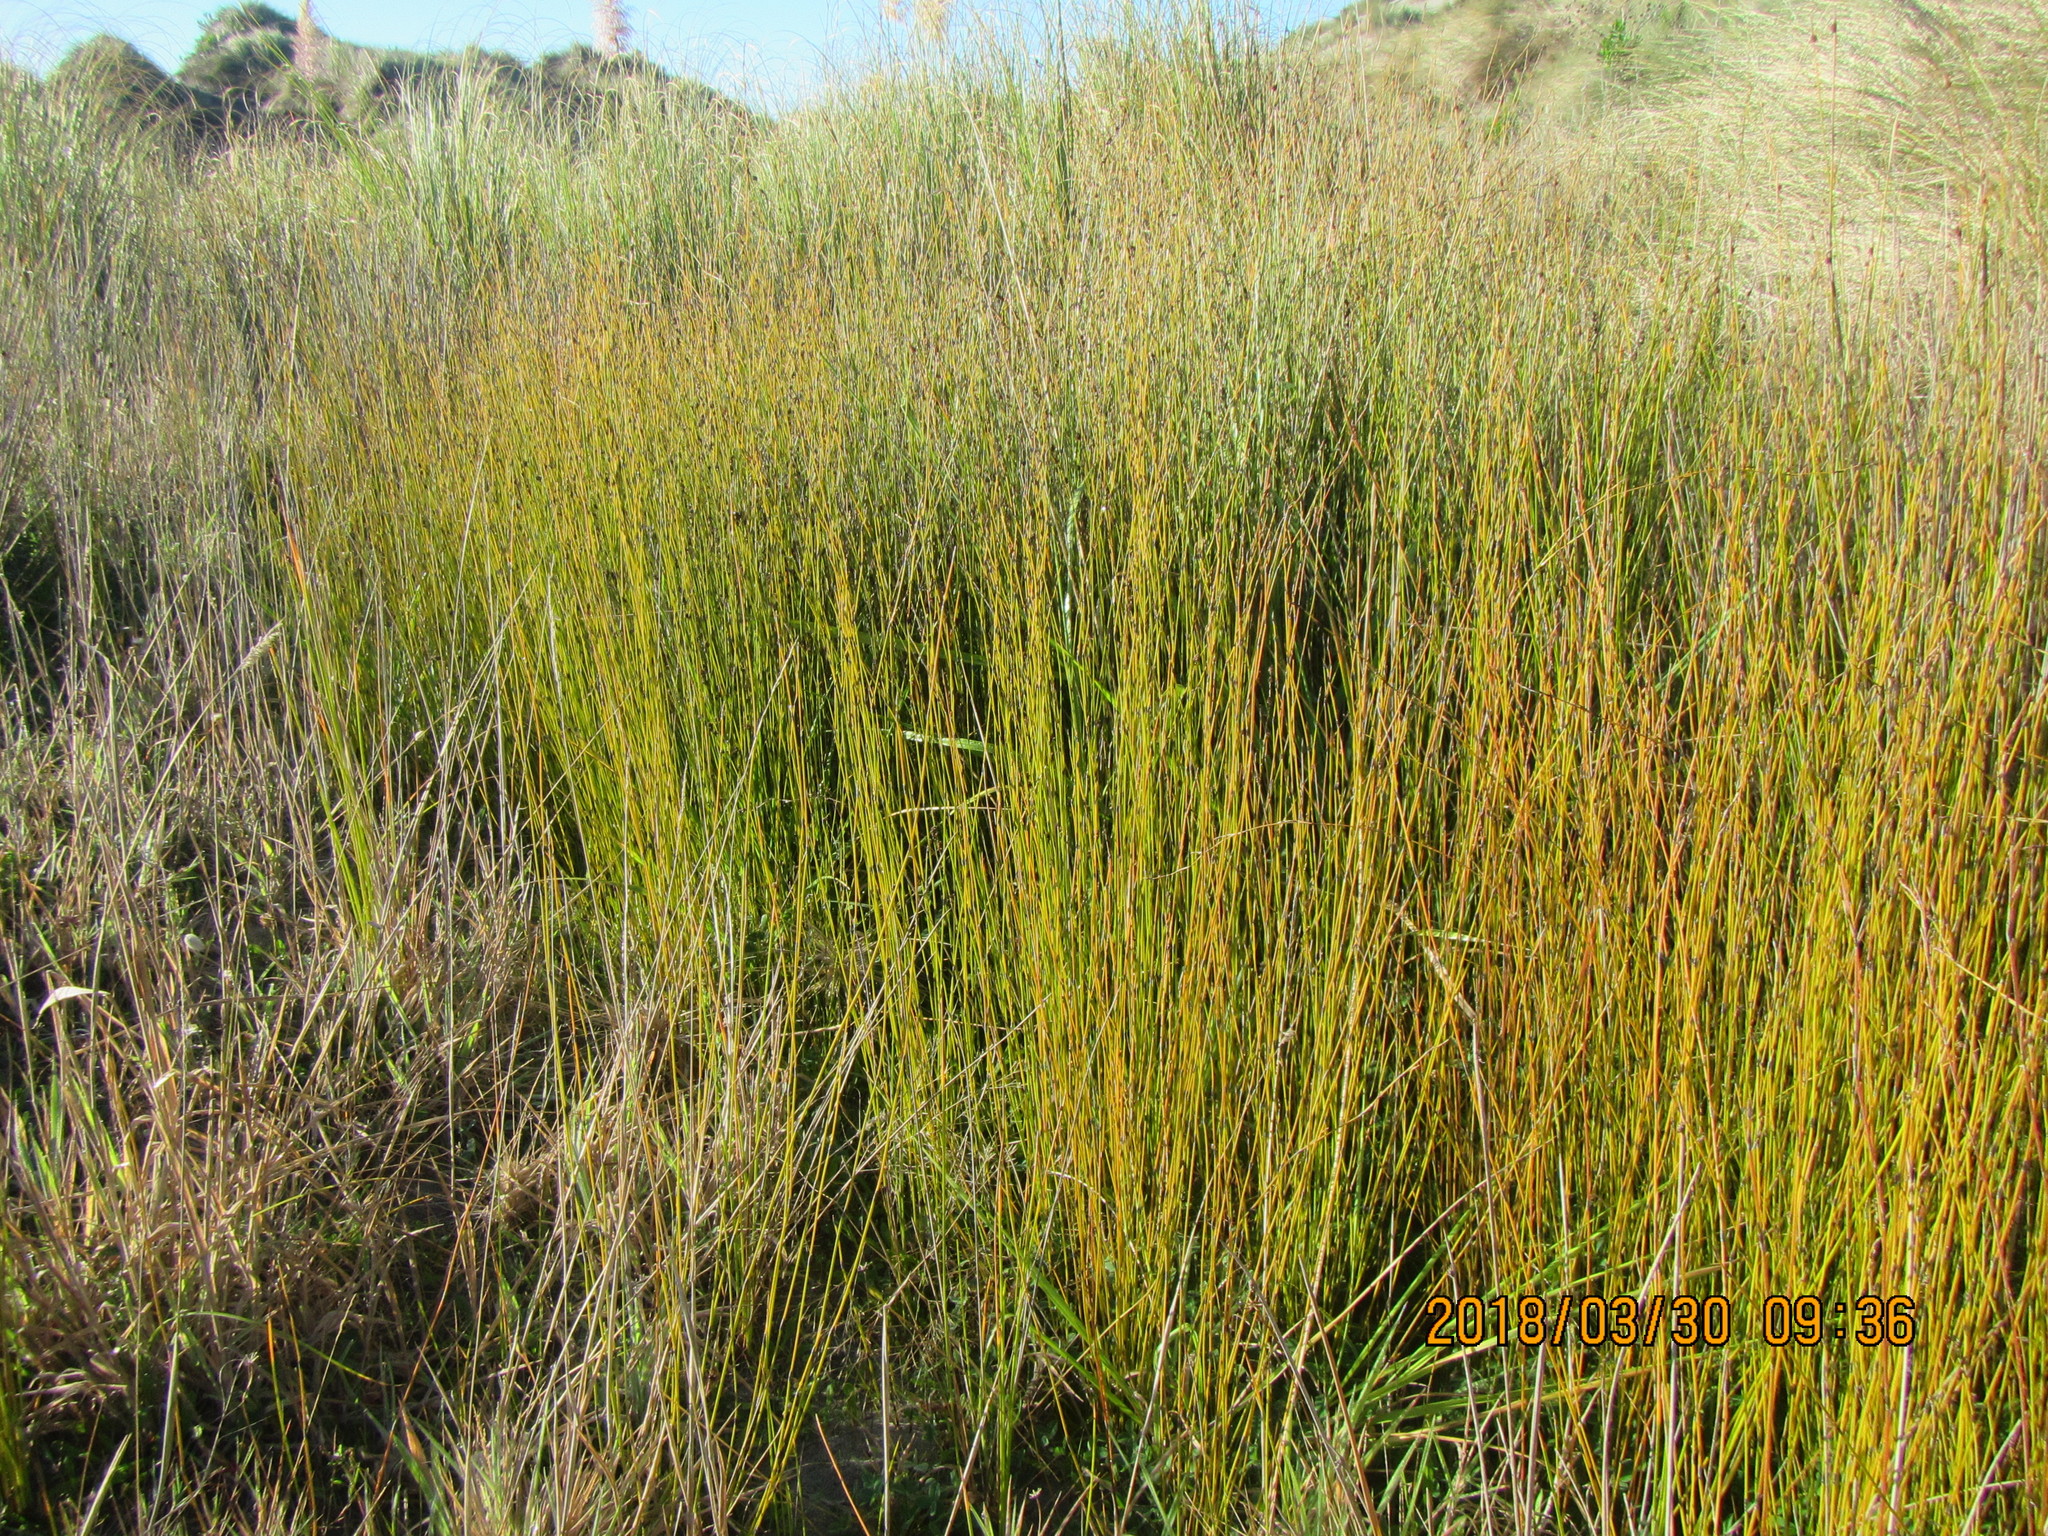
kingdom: Plantae
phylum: Tracheophyta
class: Liliopsida
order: Poales
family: Restionaceae
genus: Apodasmia
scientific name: Apodasmia similis
